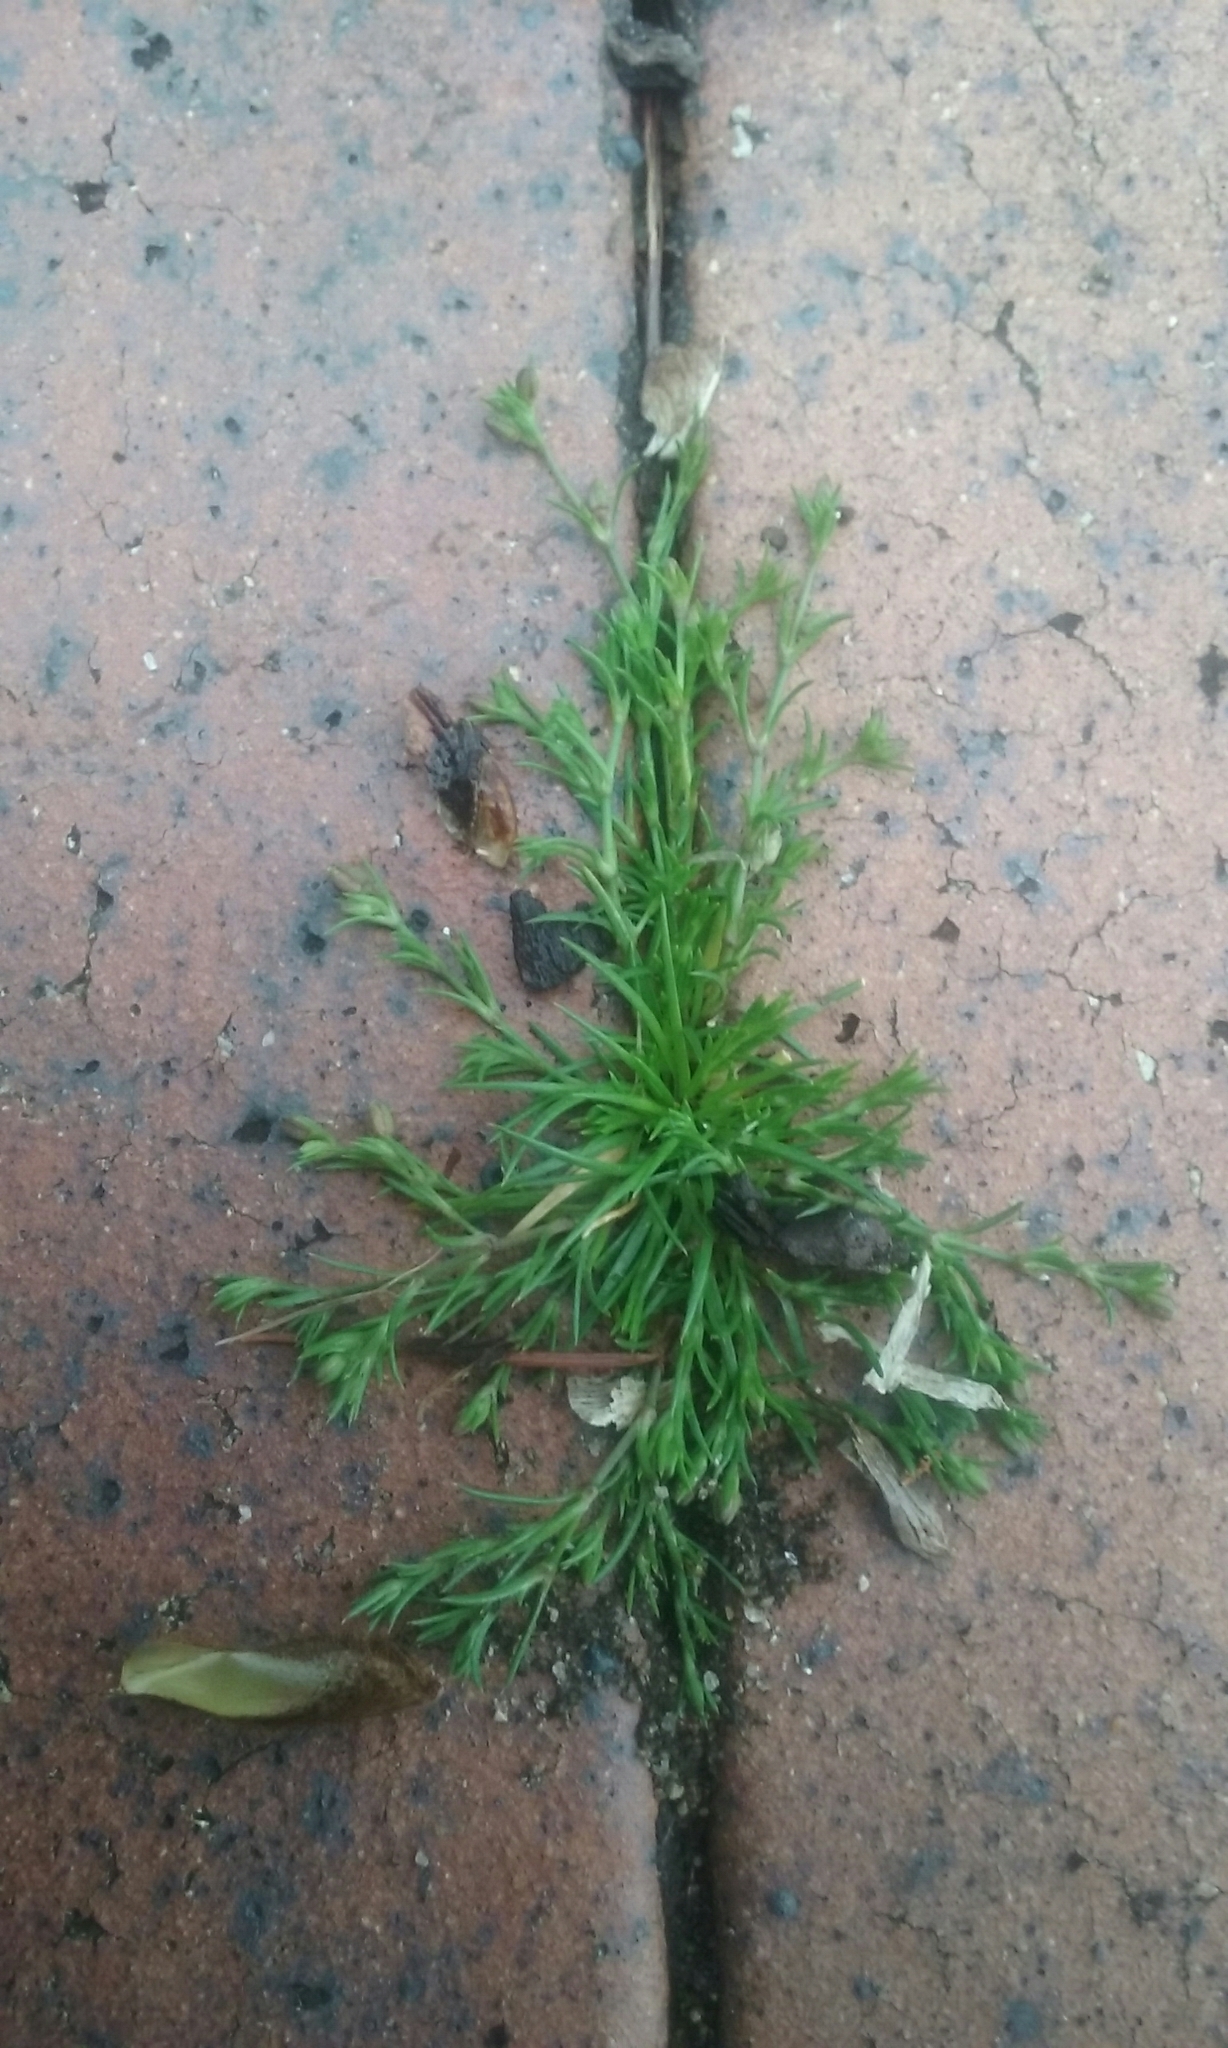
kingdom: Plantae
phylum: Tracheophyta
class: Magnoliopsida
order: Caryophyllales
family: Caryophyllaceae
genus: Sagina
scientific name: Sagina procumbens
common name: Procumbent pearlwort
